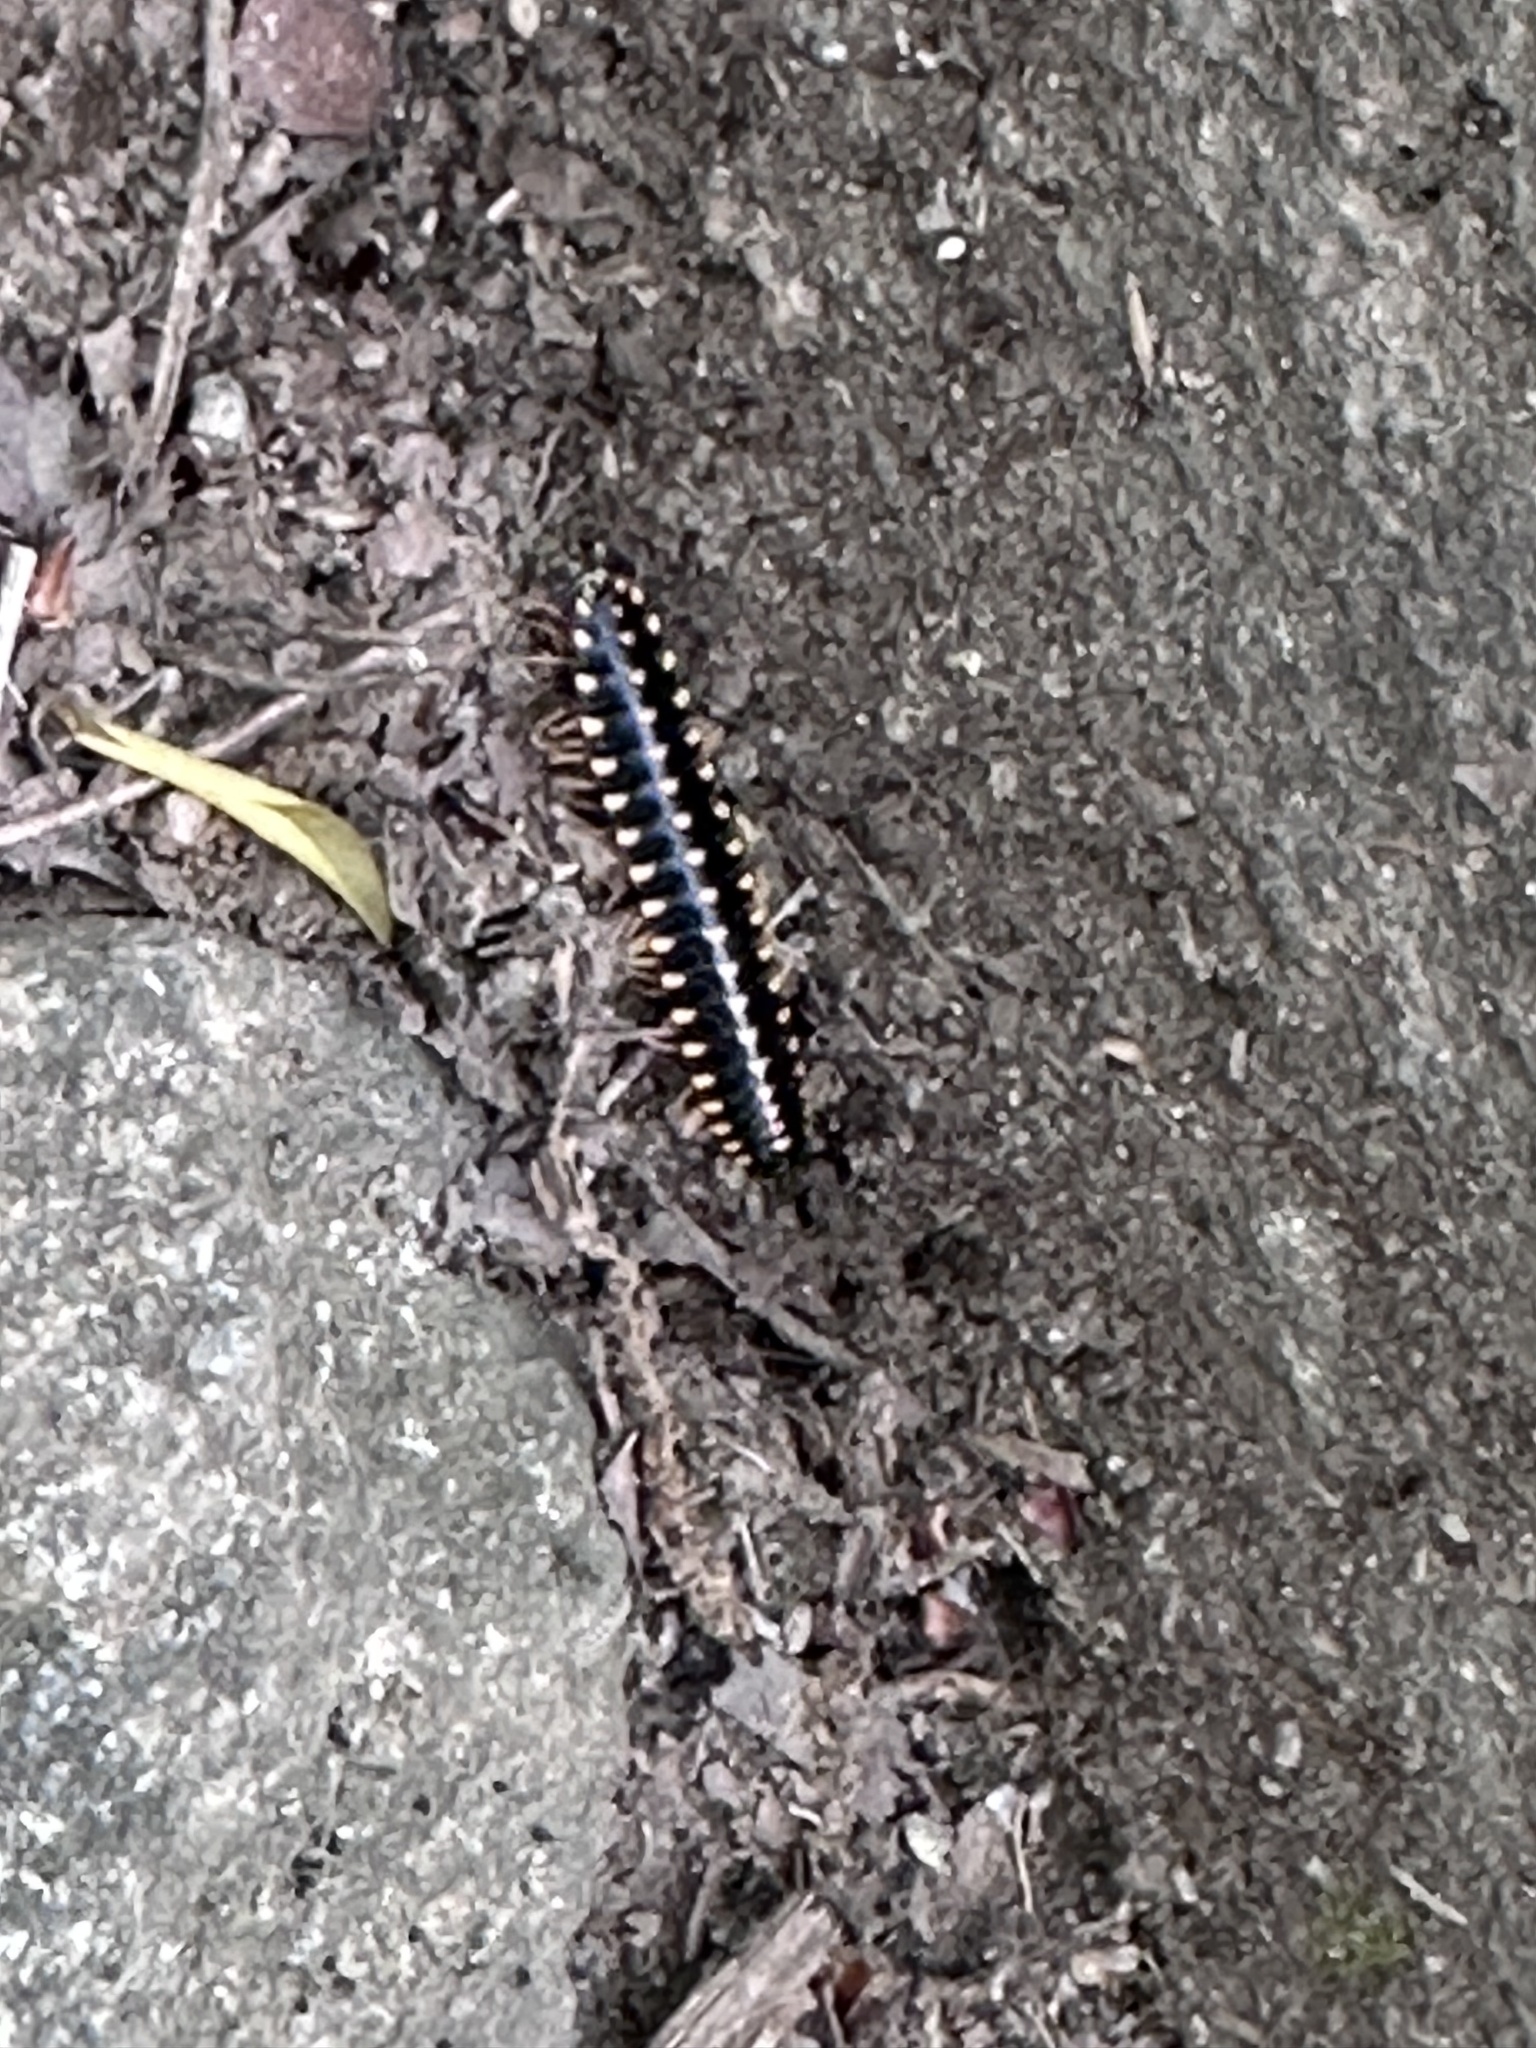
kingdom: Animalia
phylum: Arthropoda
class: Diplopoda
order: Polydesmida
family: Xystodesmidae
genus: Apheloria
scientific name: Apheloria montana
